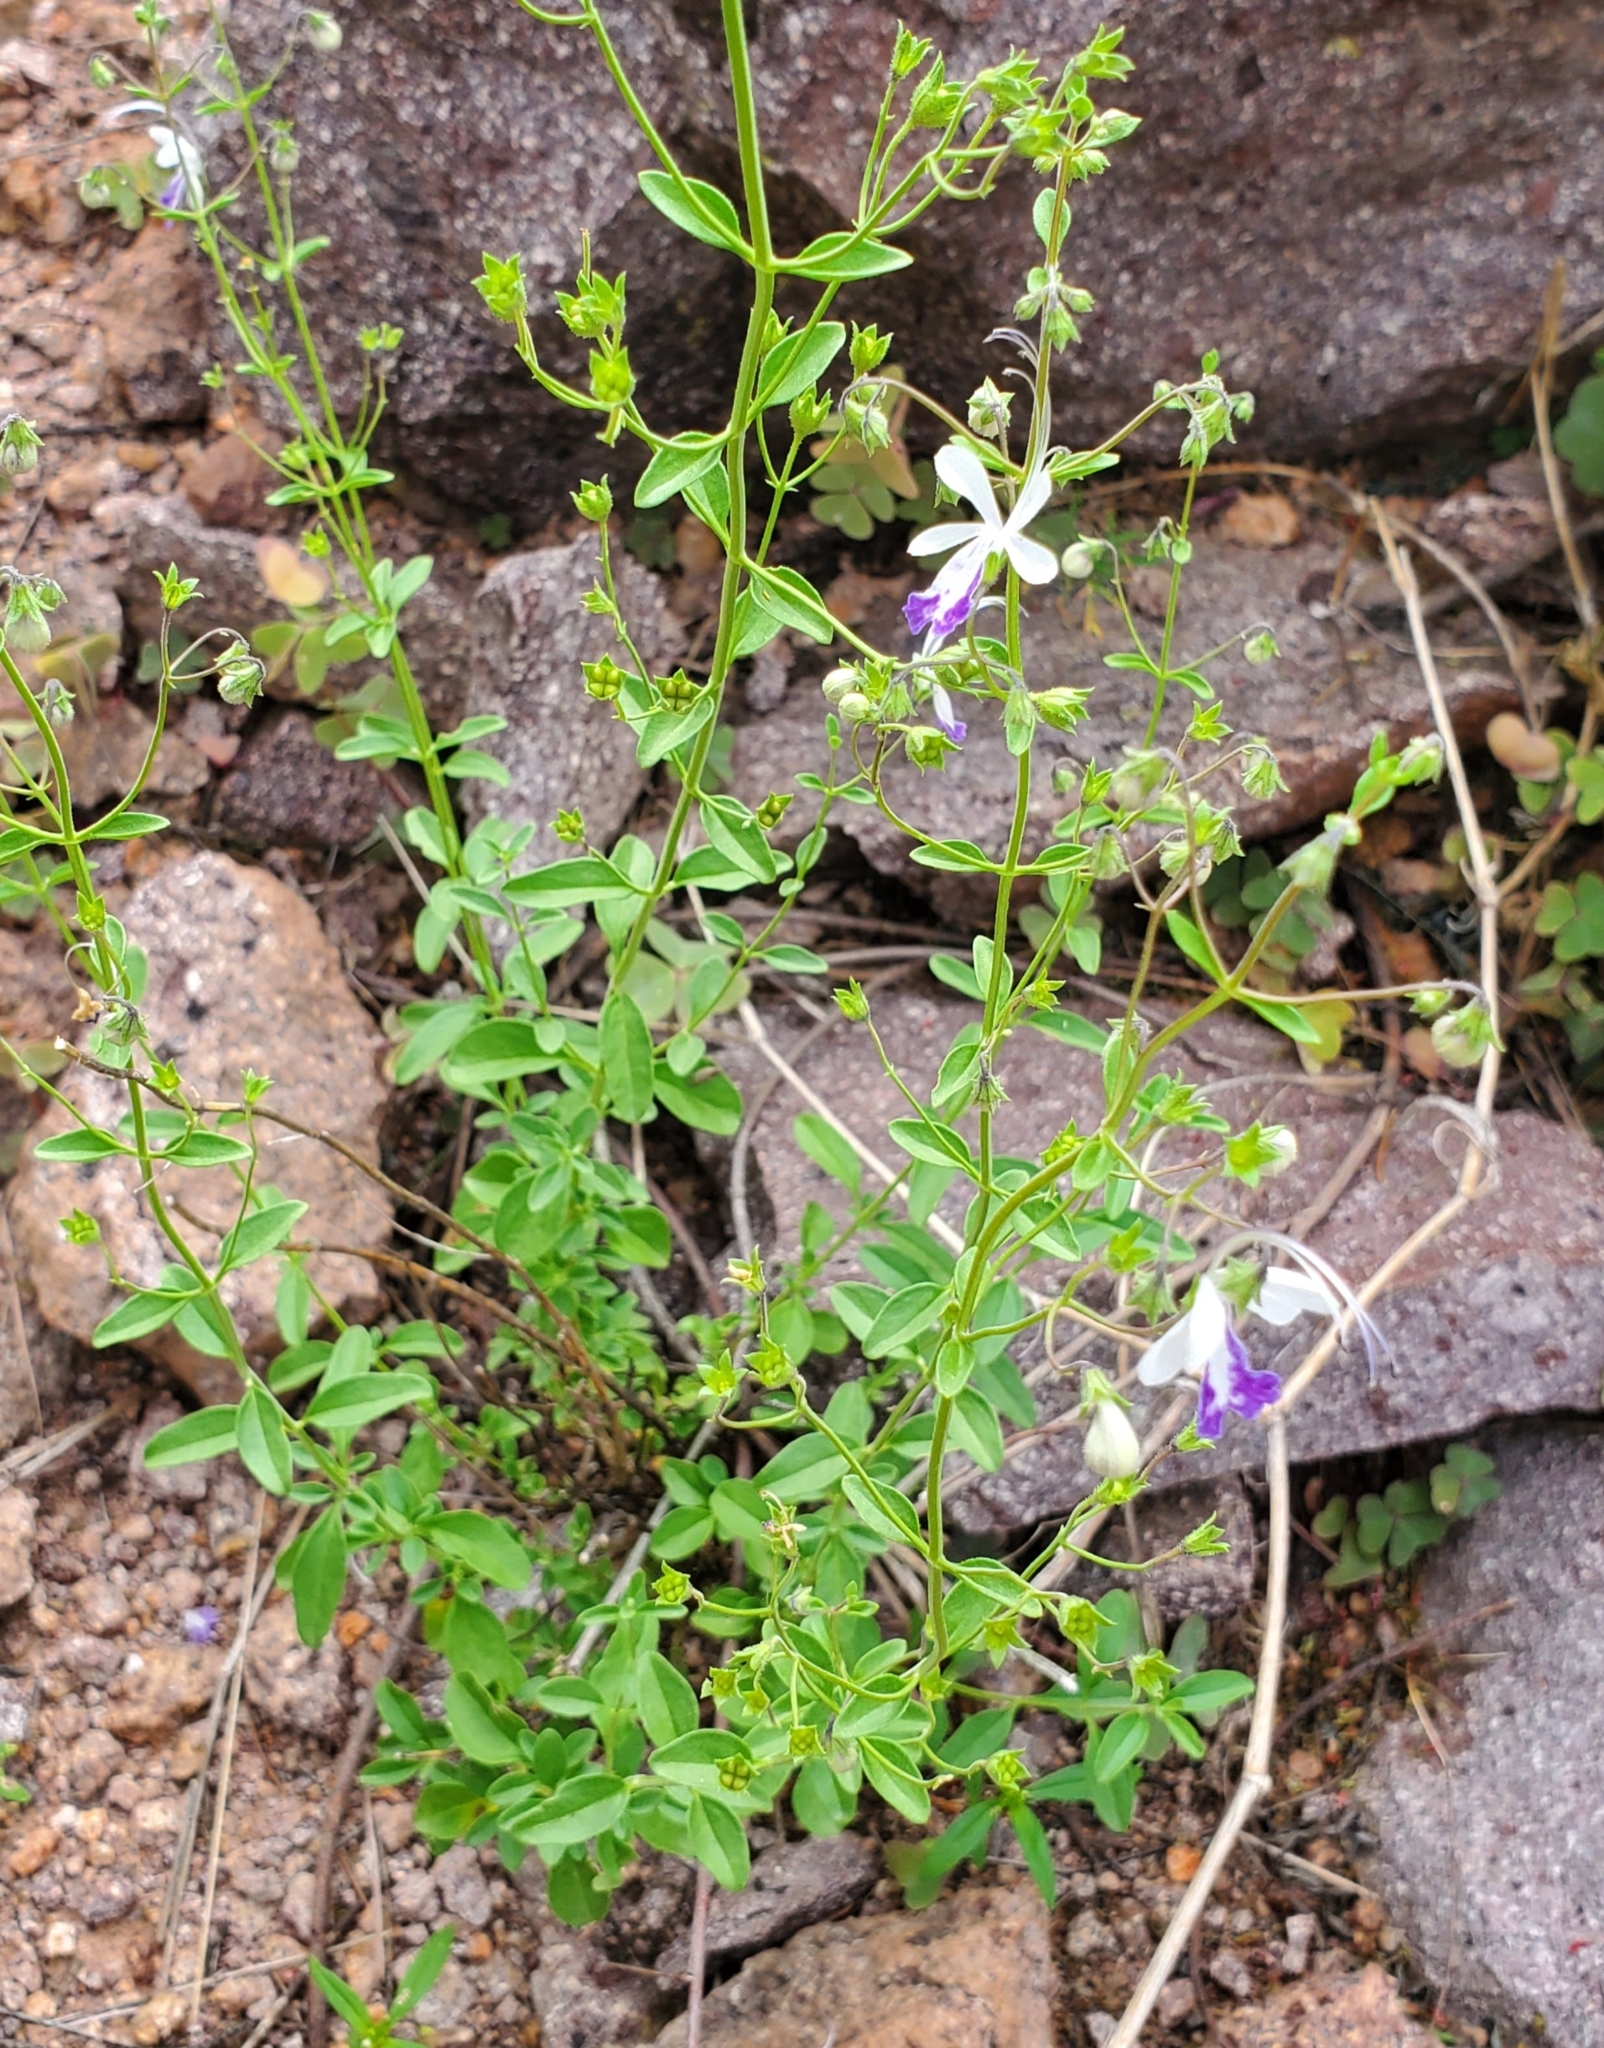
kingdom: Plantae
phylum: Tracheophyta
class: Magnoliopsida
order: Lamiales
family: Lamiaceae
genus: Trichostema
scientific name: Trichostema arizonicum
